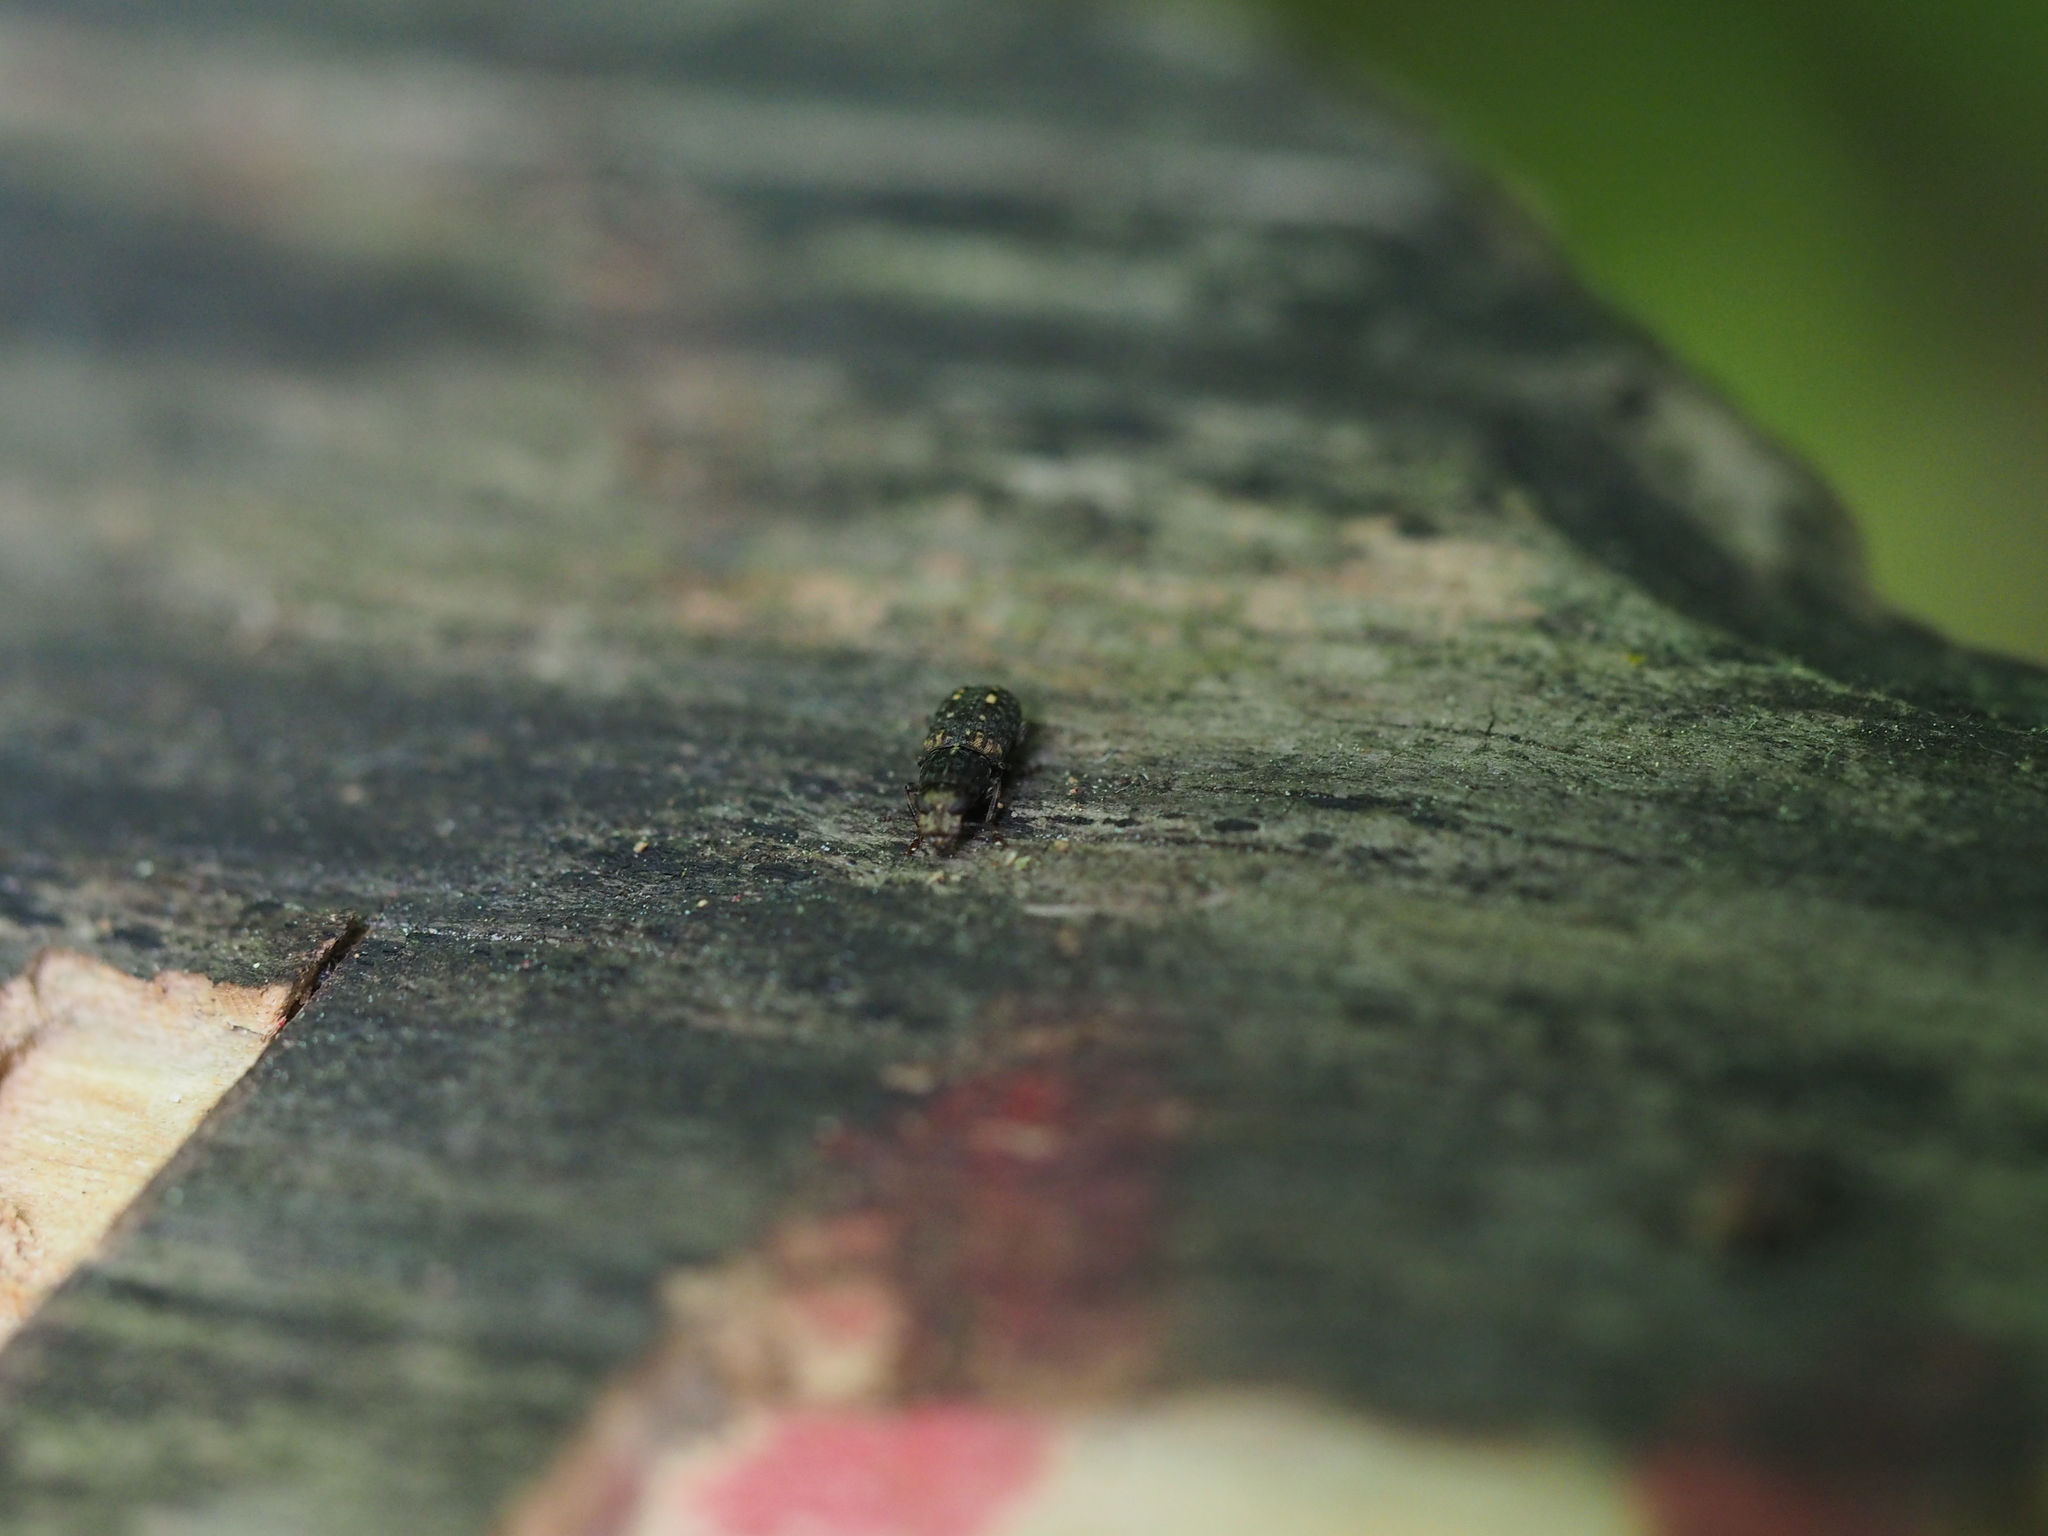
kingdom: Animalia
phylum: Arthropoda
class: Insecta
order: Coleoptera
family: Anthribidae
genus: Ulorhinus
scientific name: Ulorhinus bilineatus
